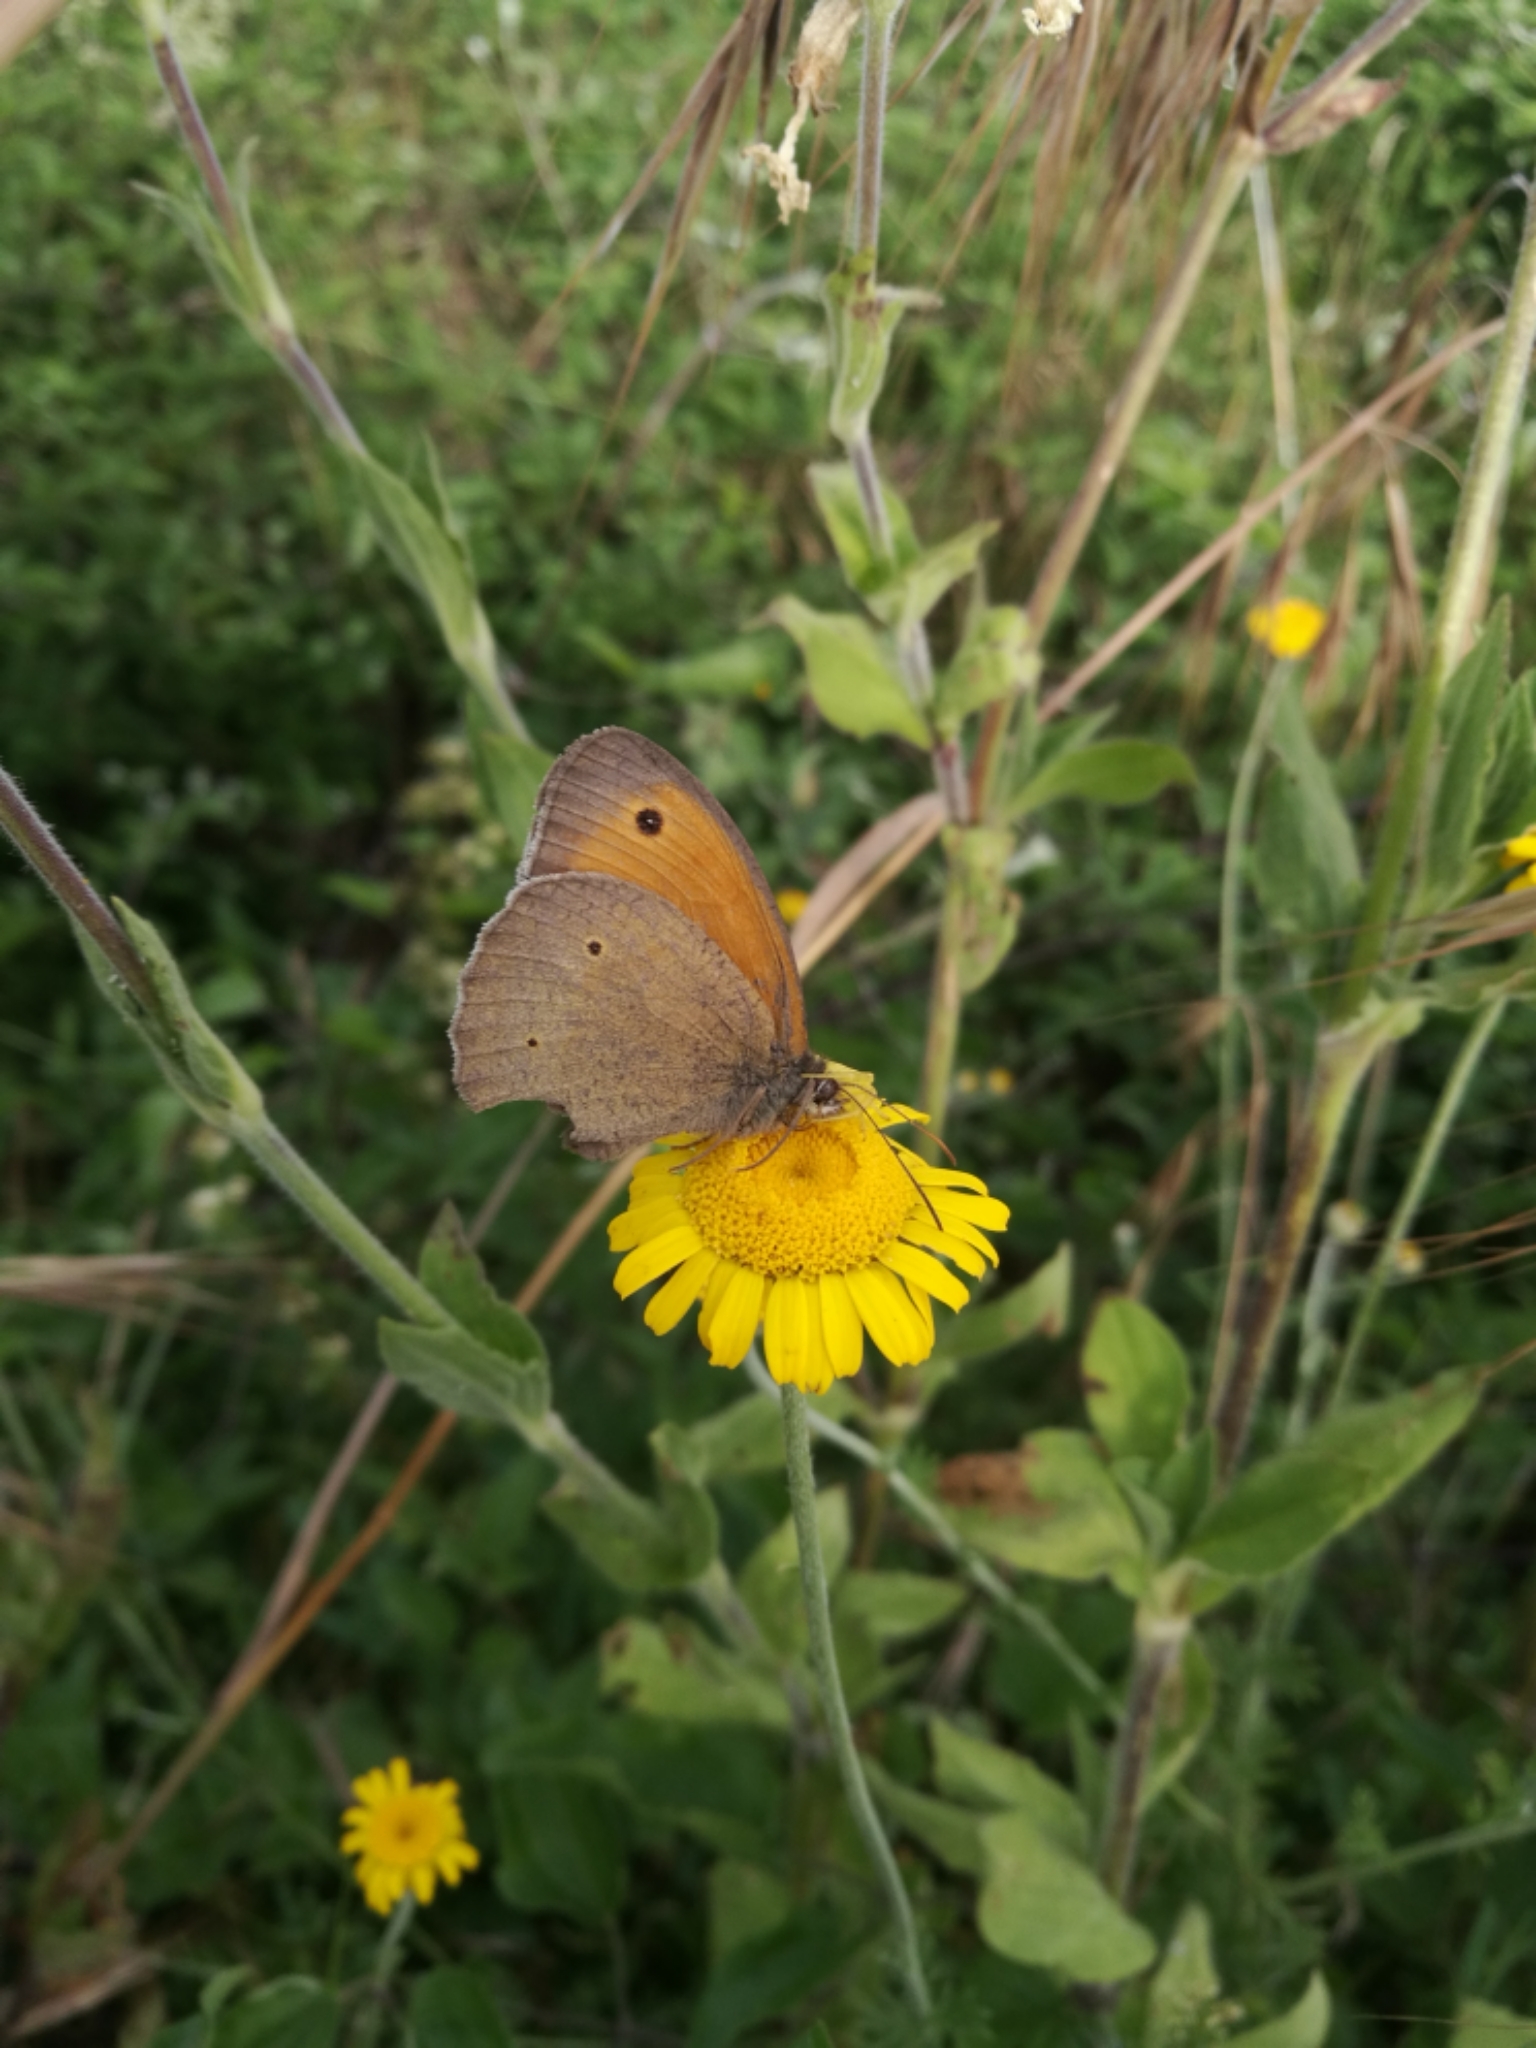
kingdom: Animalia
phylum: Arthropoda
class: Insecta
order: Lepidoptera
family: Nymphalidae
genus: Maniola
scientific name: Maniola jurtina
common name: Meadow brown
